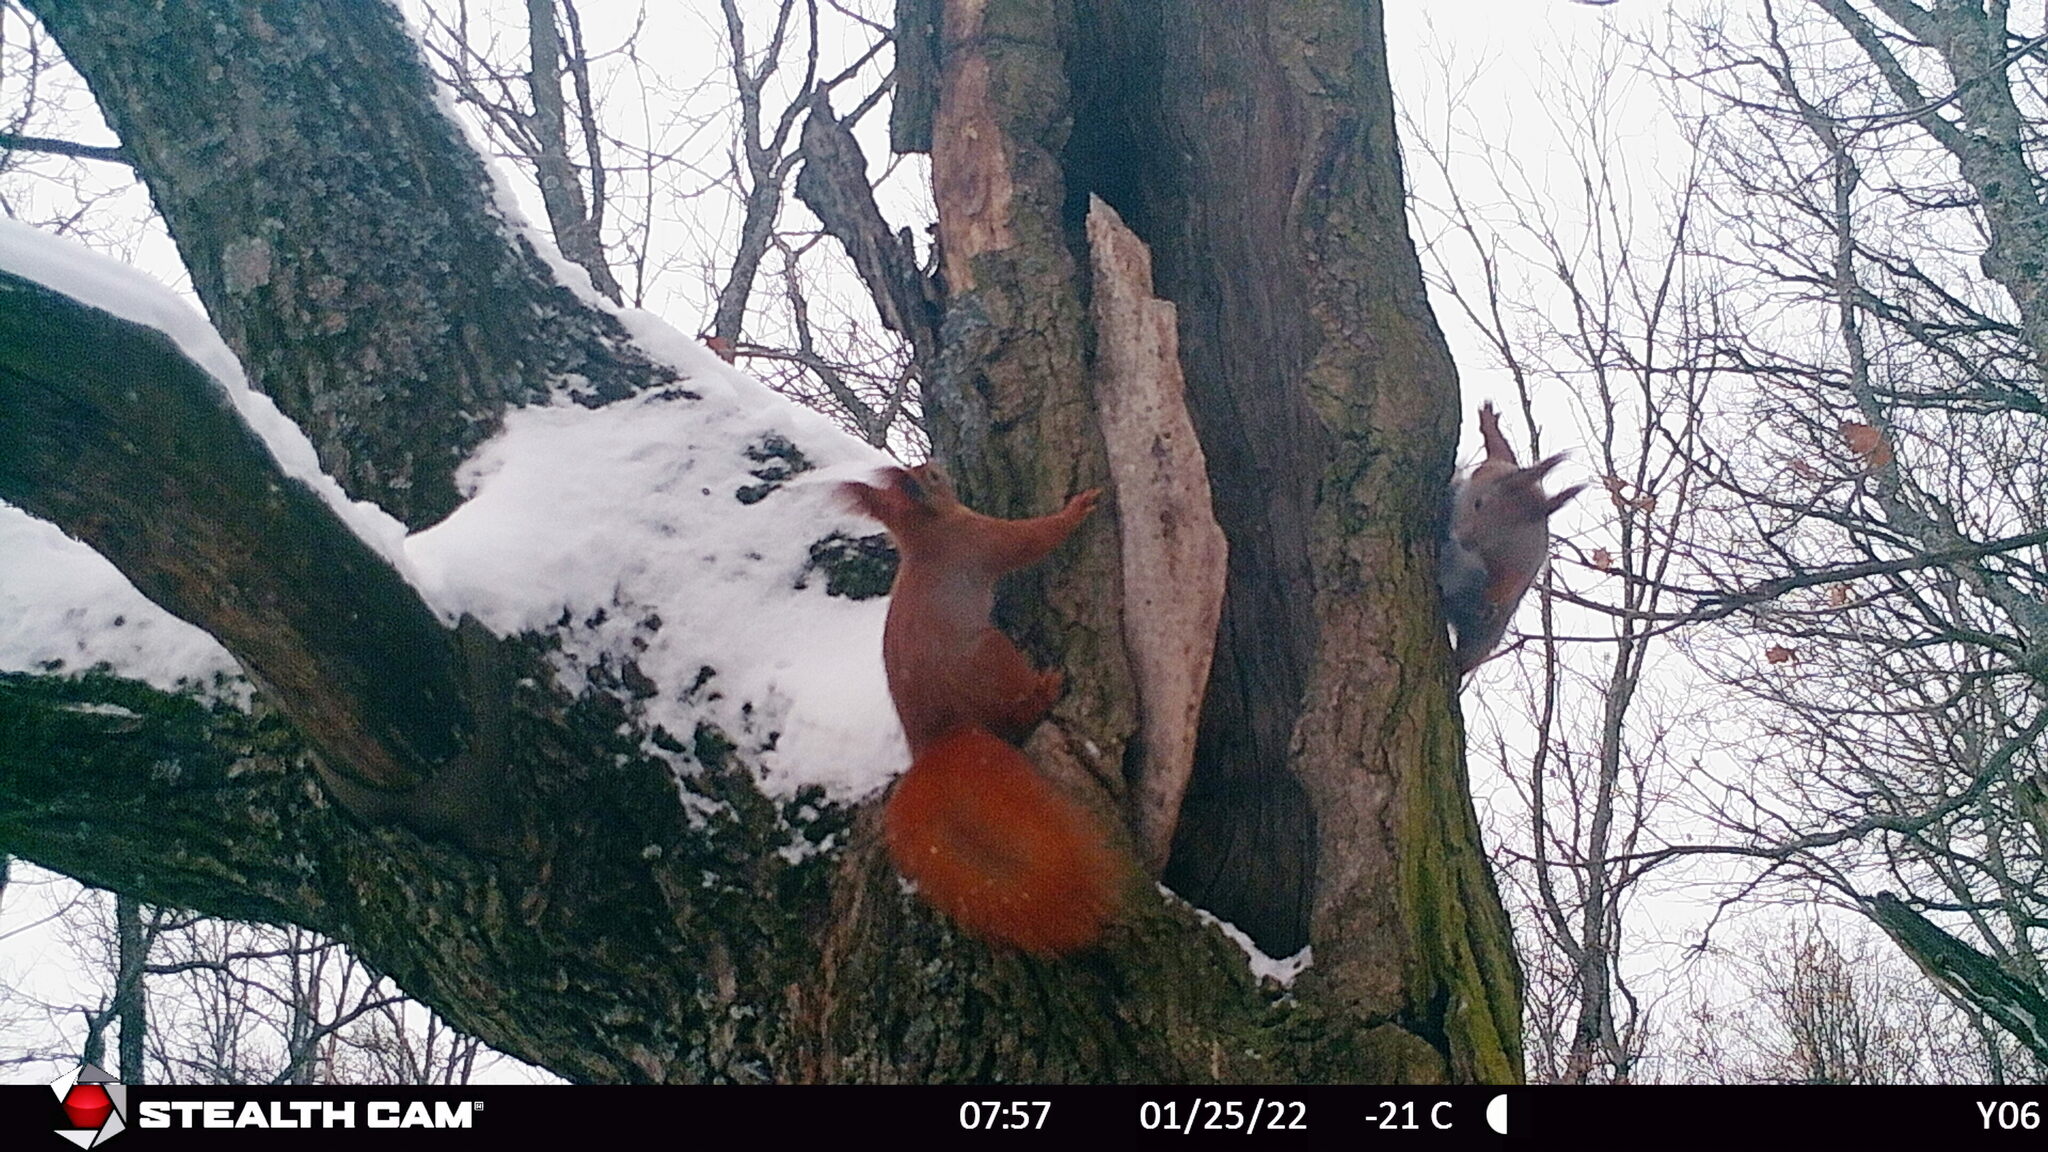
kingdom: Animalia
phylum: Chordata
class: Mammalia
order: Rodentia
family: Sciuridae
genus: Sciurus
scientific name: Sciurus vulgaris
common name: Eurasian red squirrel
